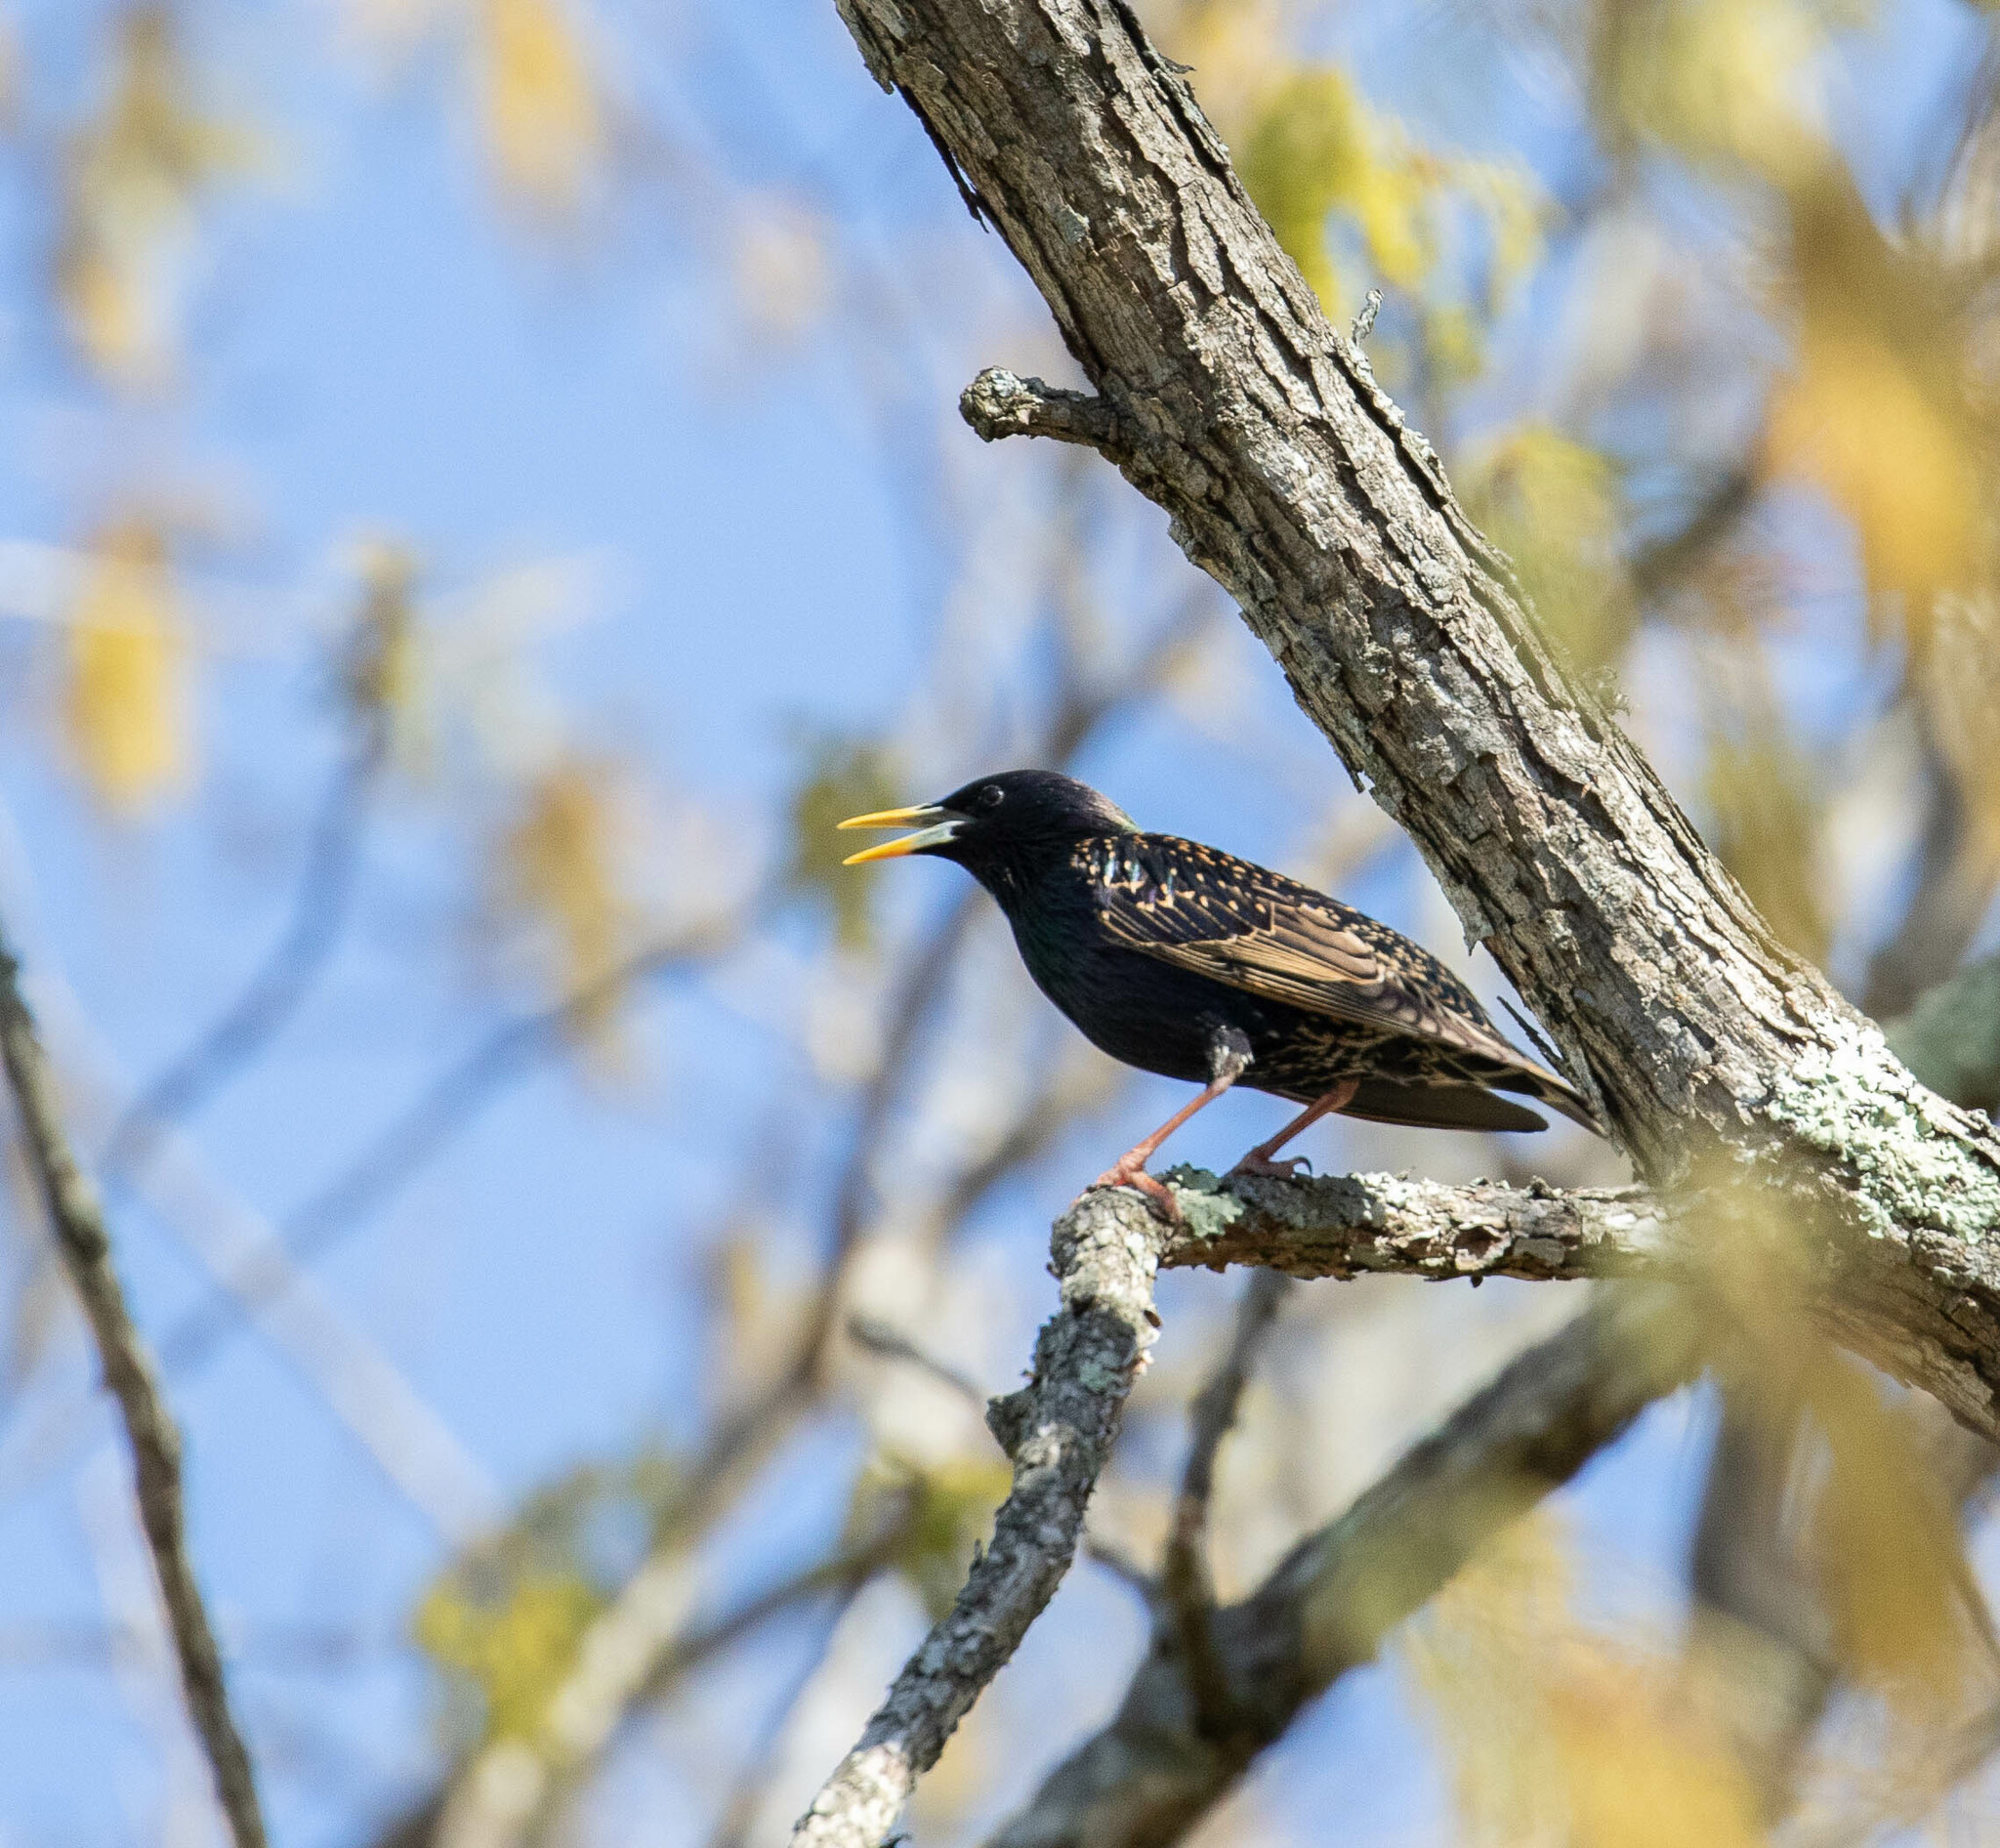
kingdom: Animalia
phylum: Chordata
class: Aves
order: Passeriformes
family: Sturnidae
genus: Sturnus
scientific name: Sturnus vulgaris
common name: Common starling
